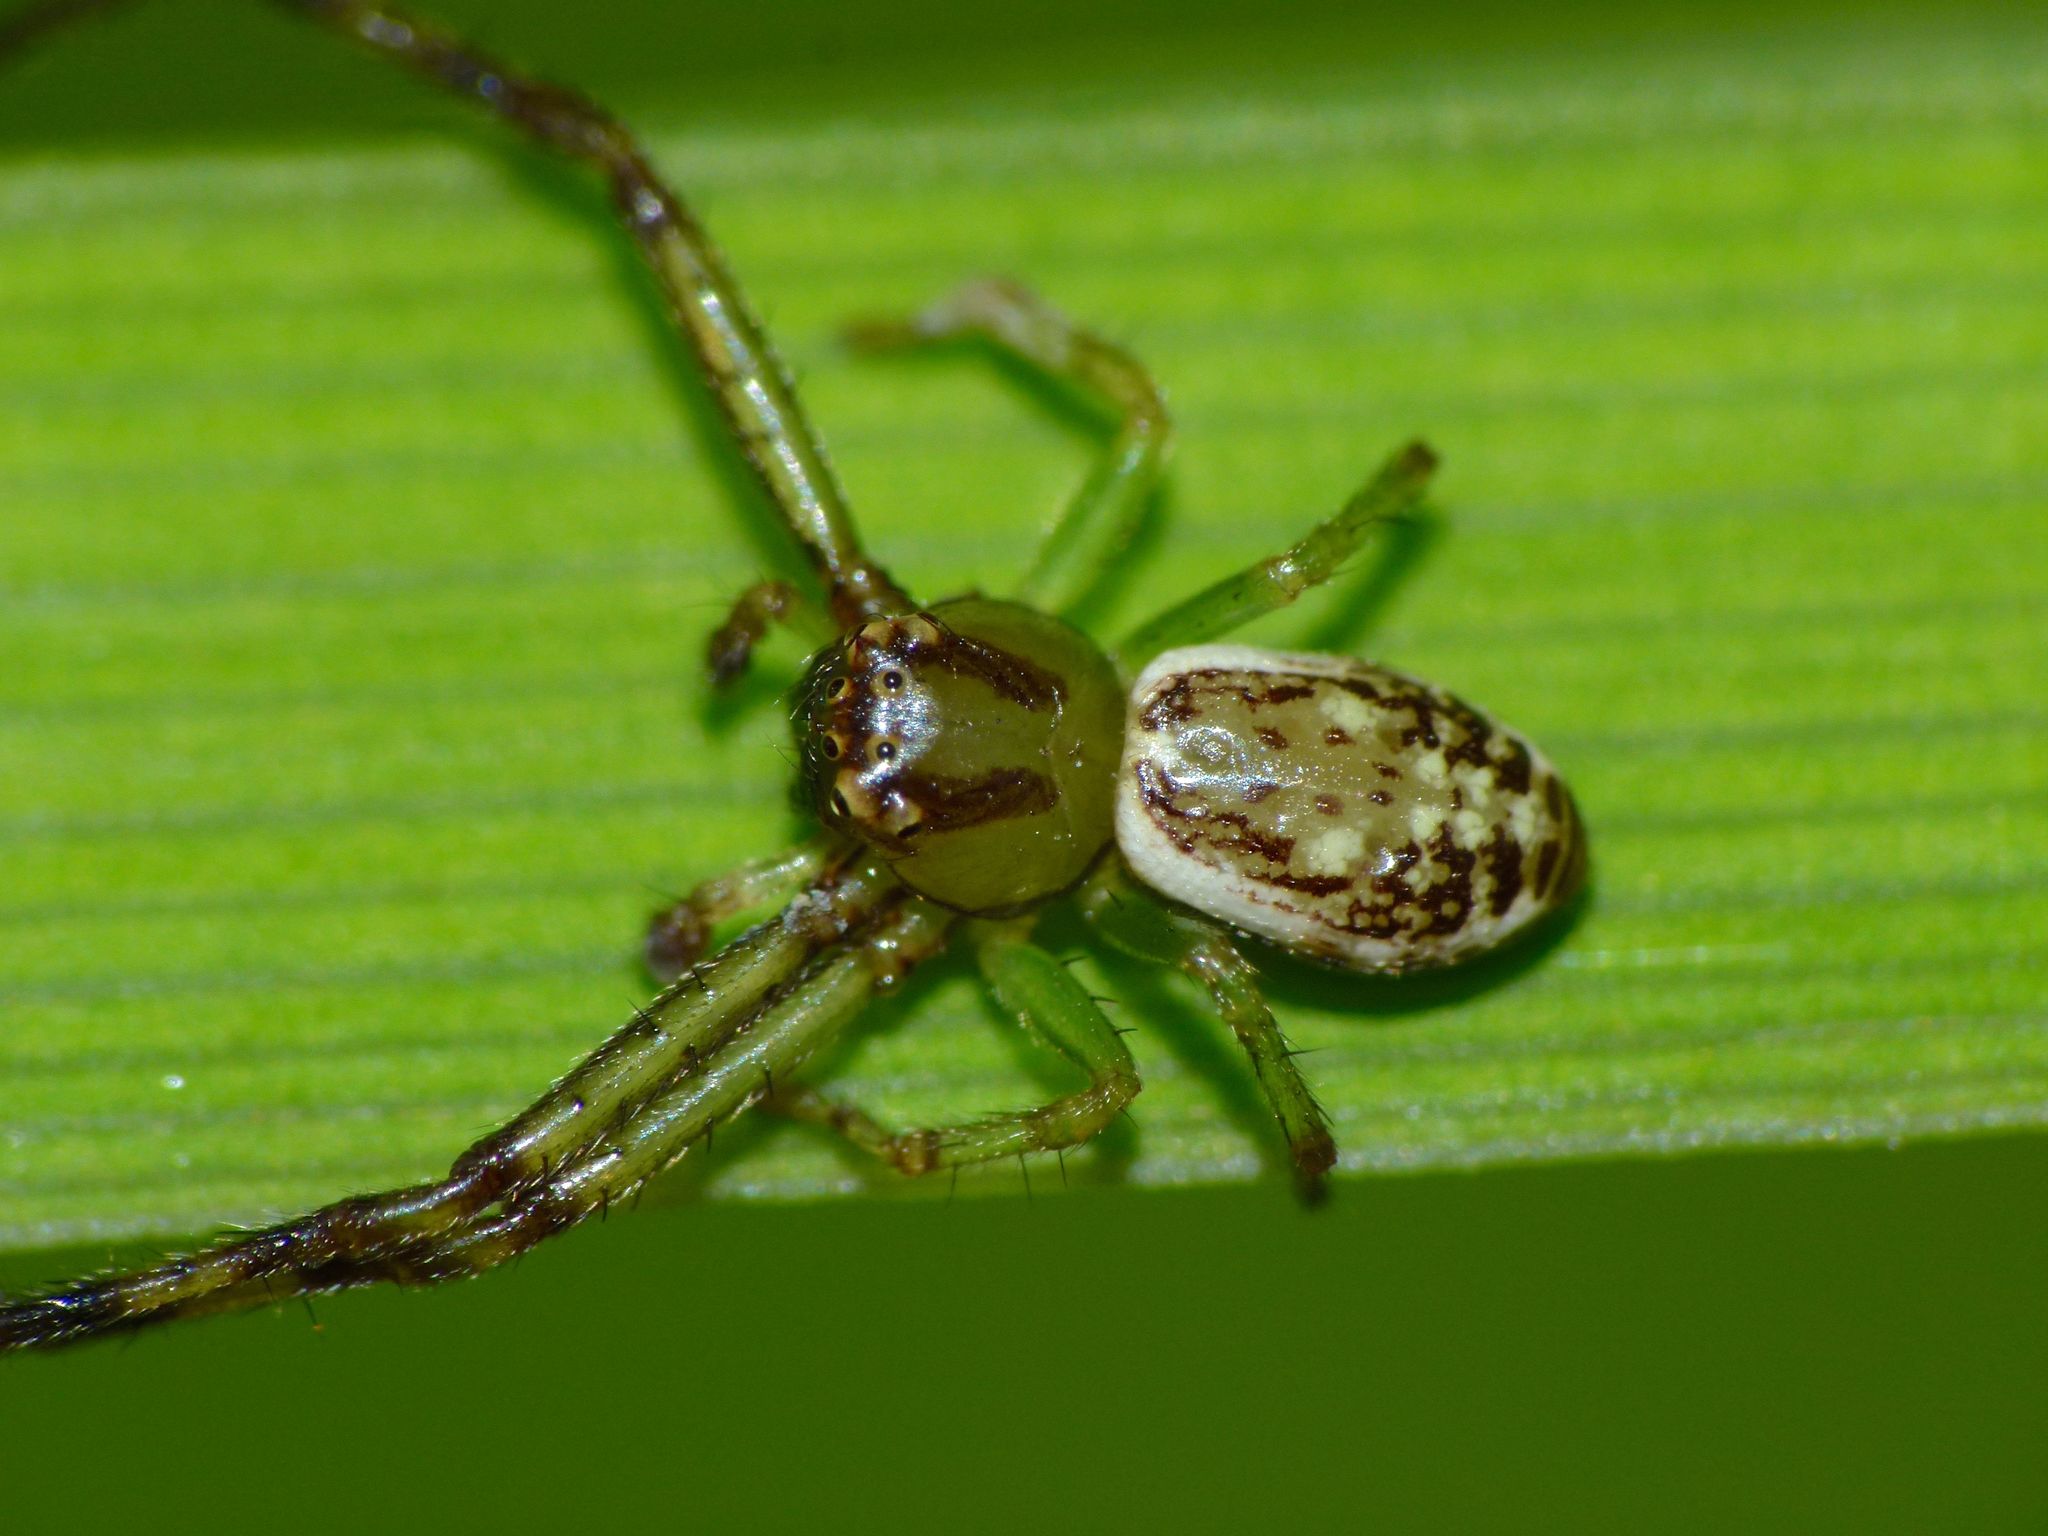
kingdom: Animalia
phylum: Arthropoda
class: Arachnida
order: Araneae
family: Thomisidae
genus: Diaea
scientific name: Diaea ambara
